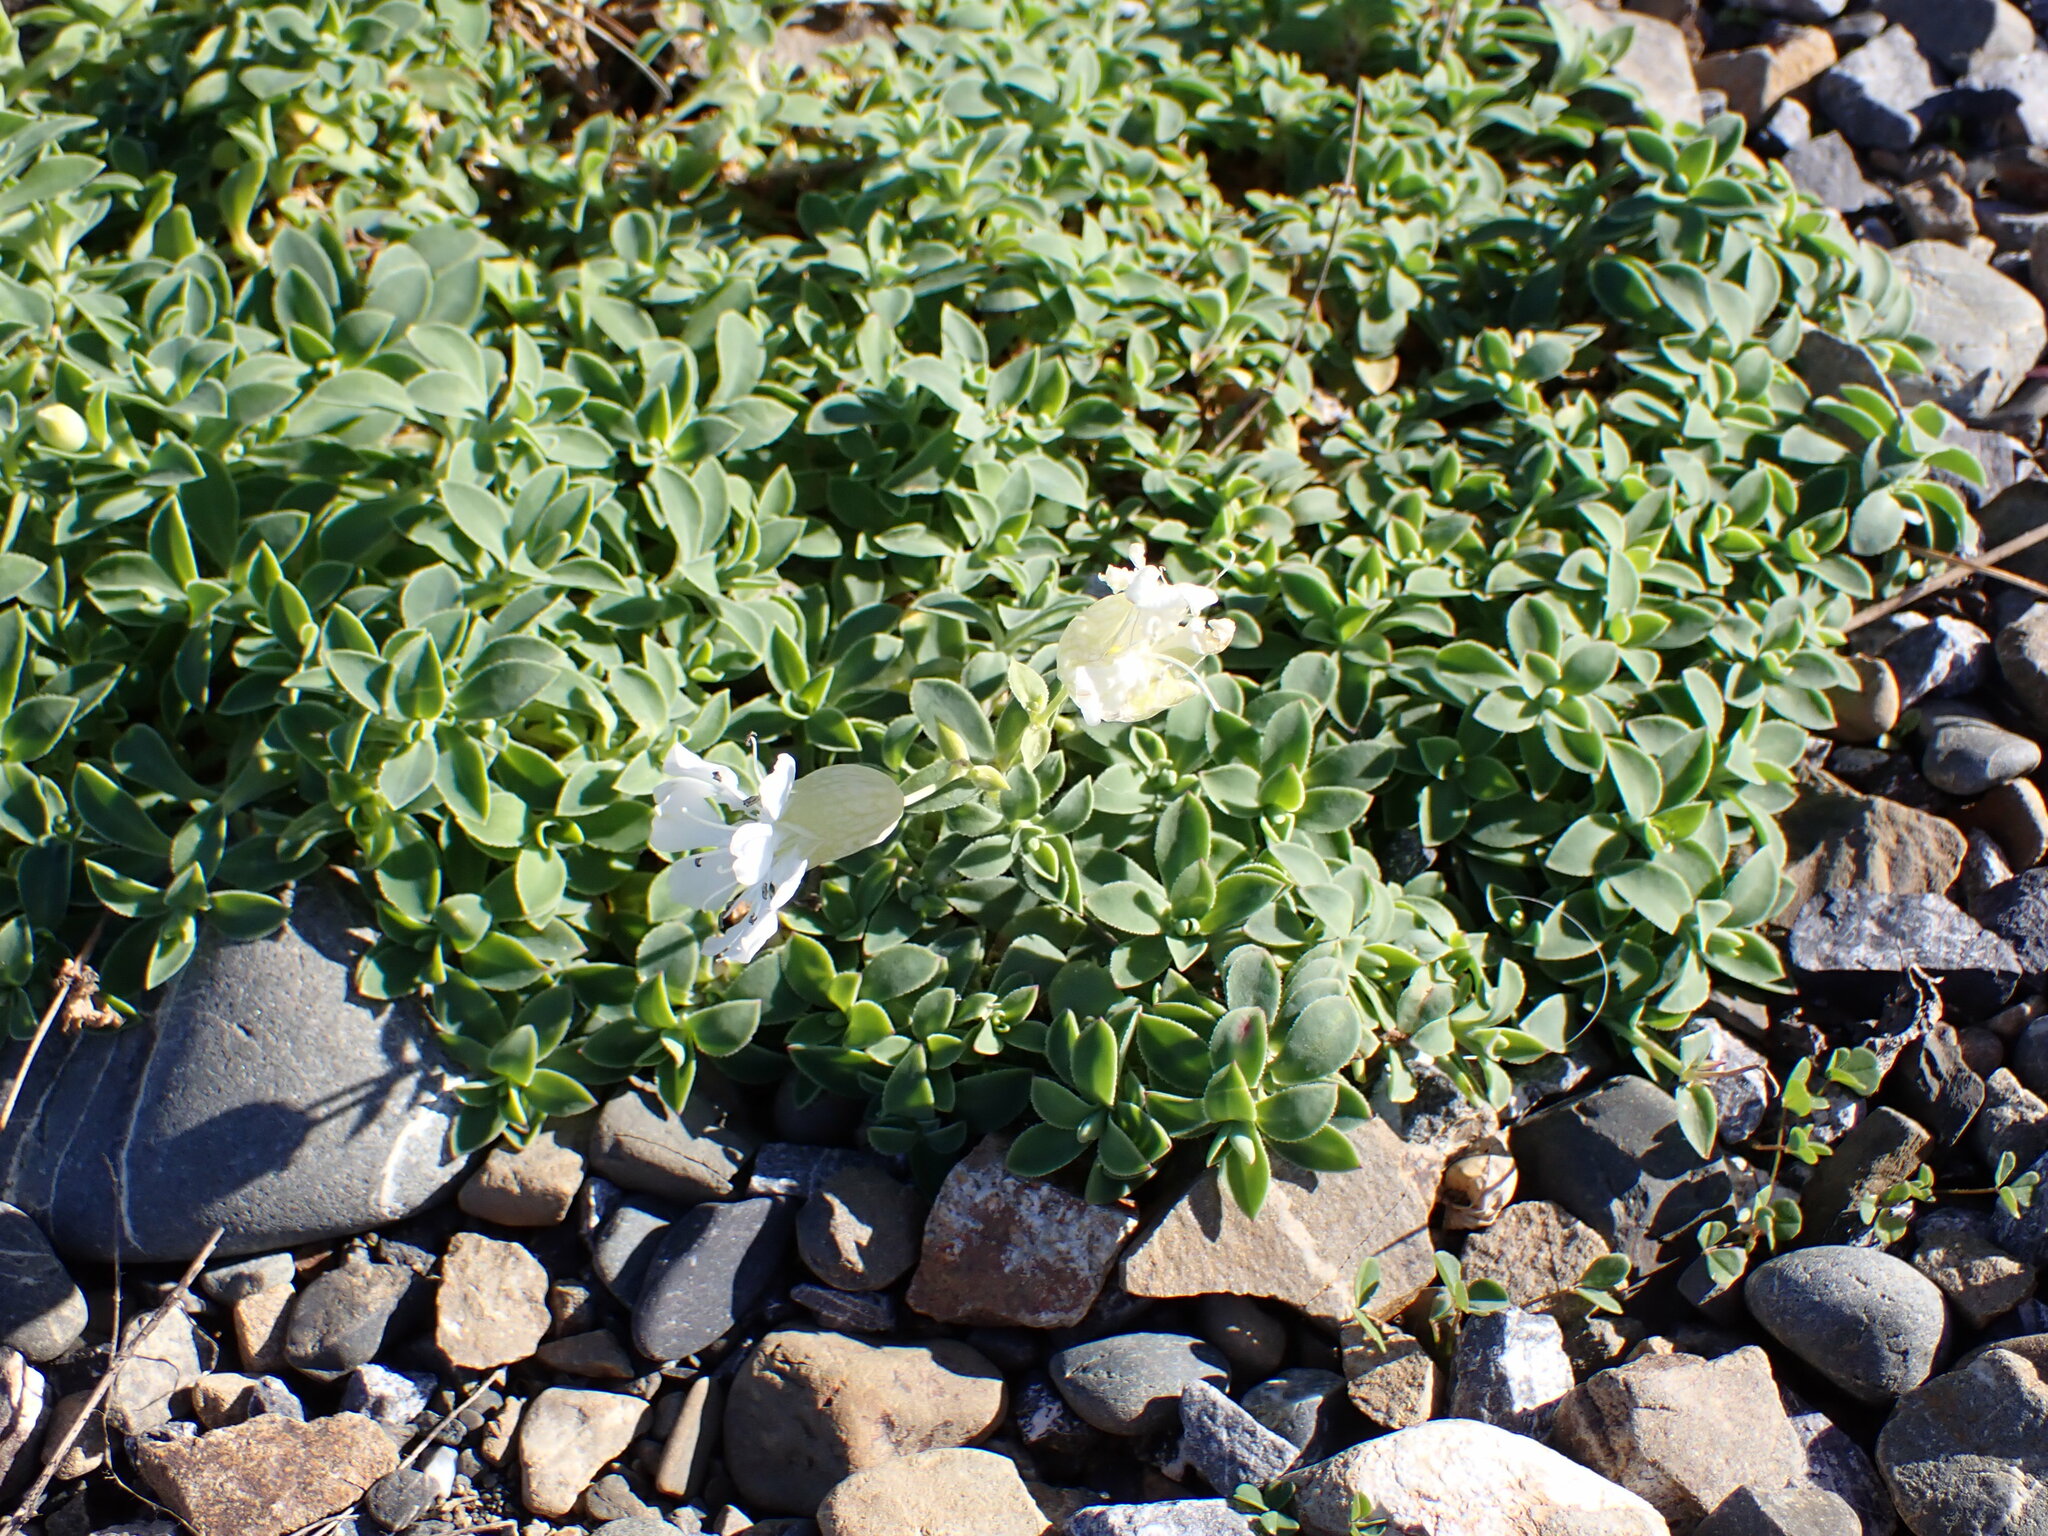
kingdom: Plantae
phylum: Tracheophyta
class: Magnoliopsida
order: Caryophyllales
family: Caryophyllaceae
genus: Silene
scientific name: Silene uniflora
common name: Sea campion
